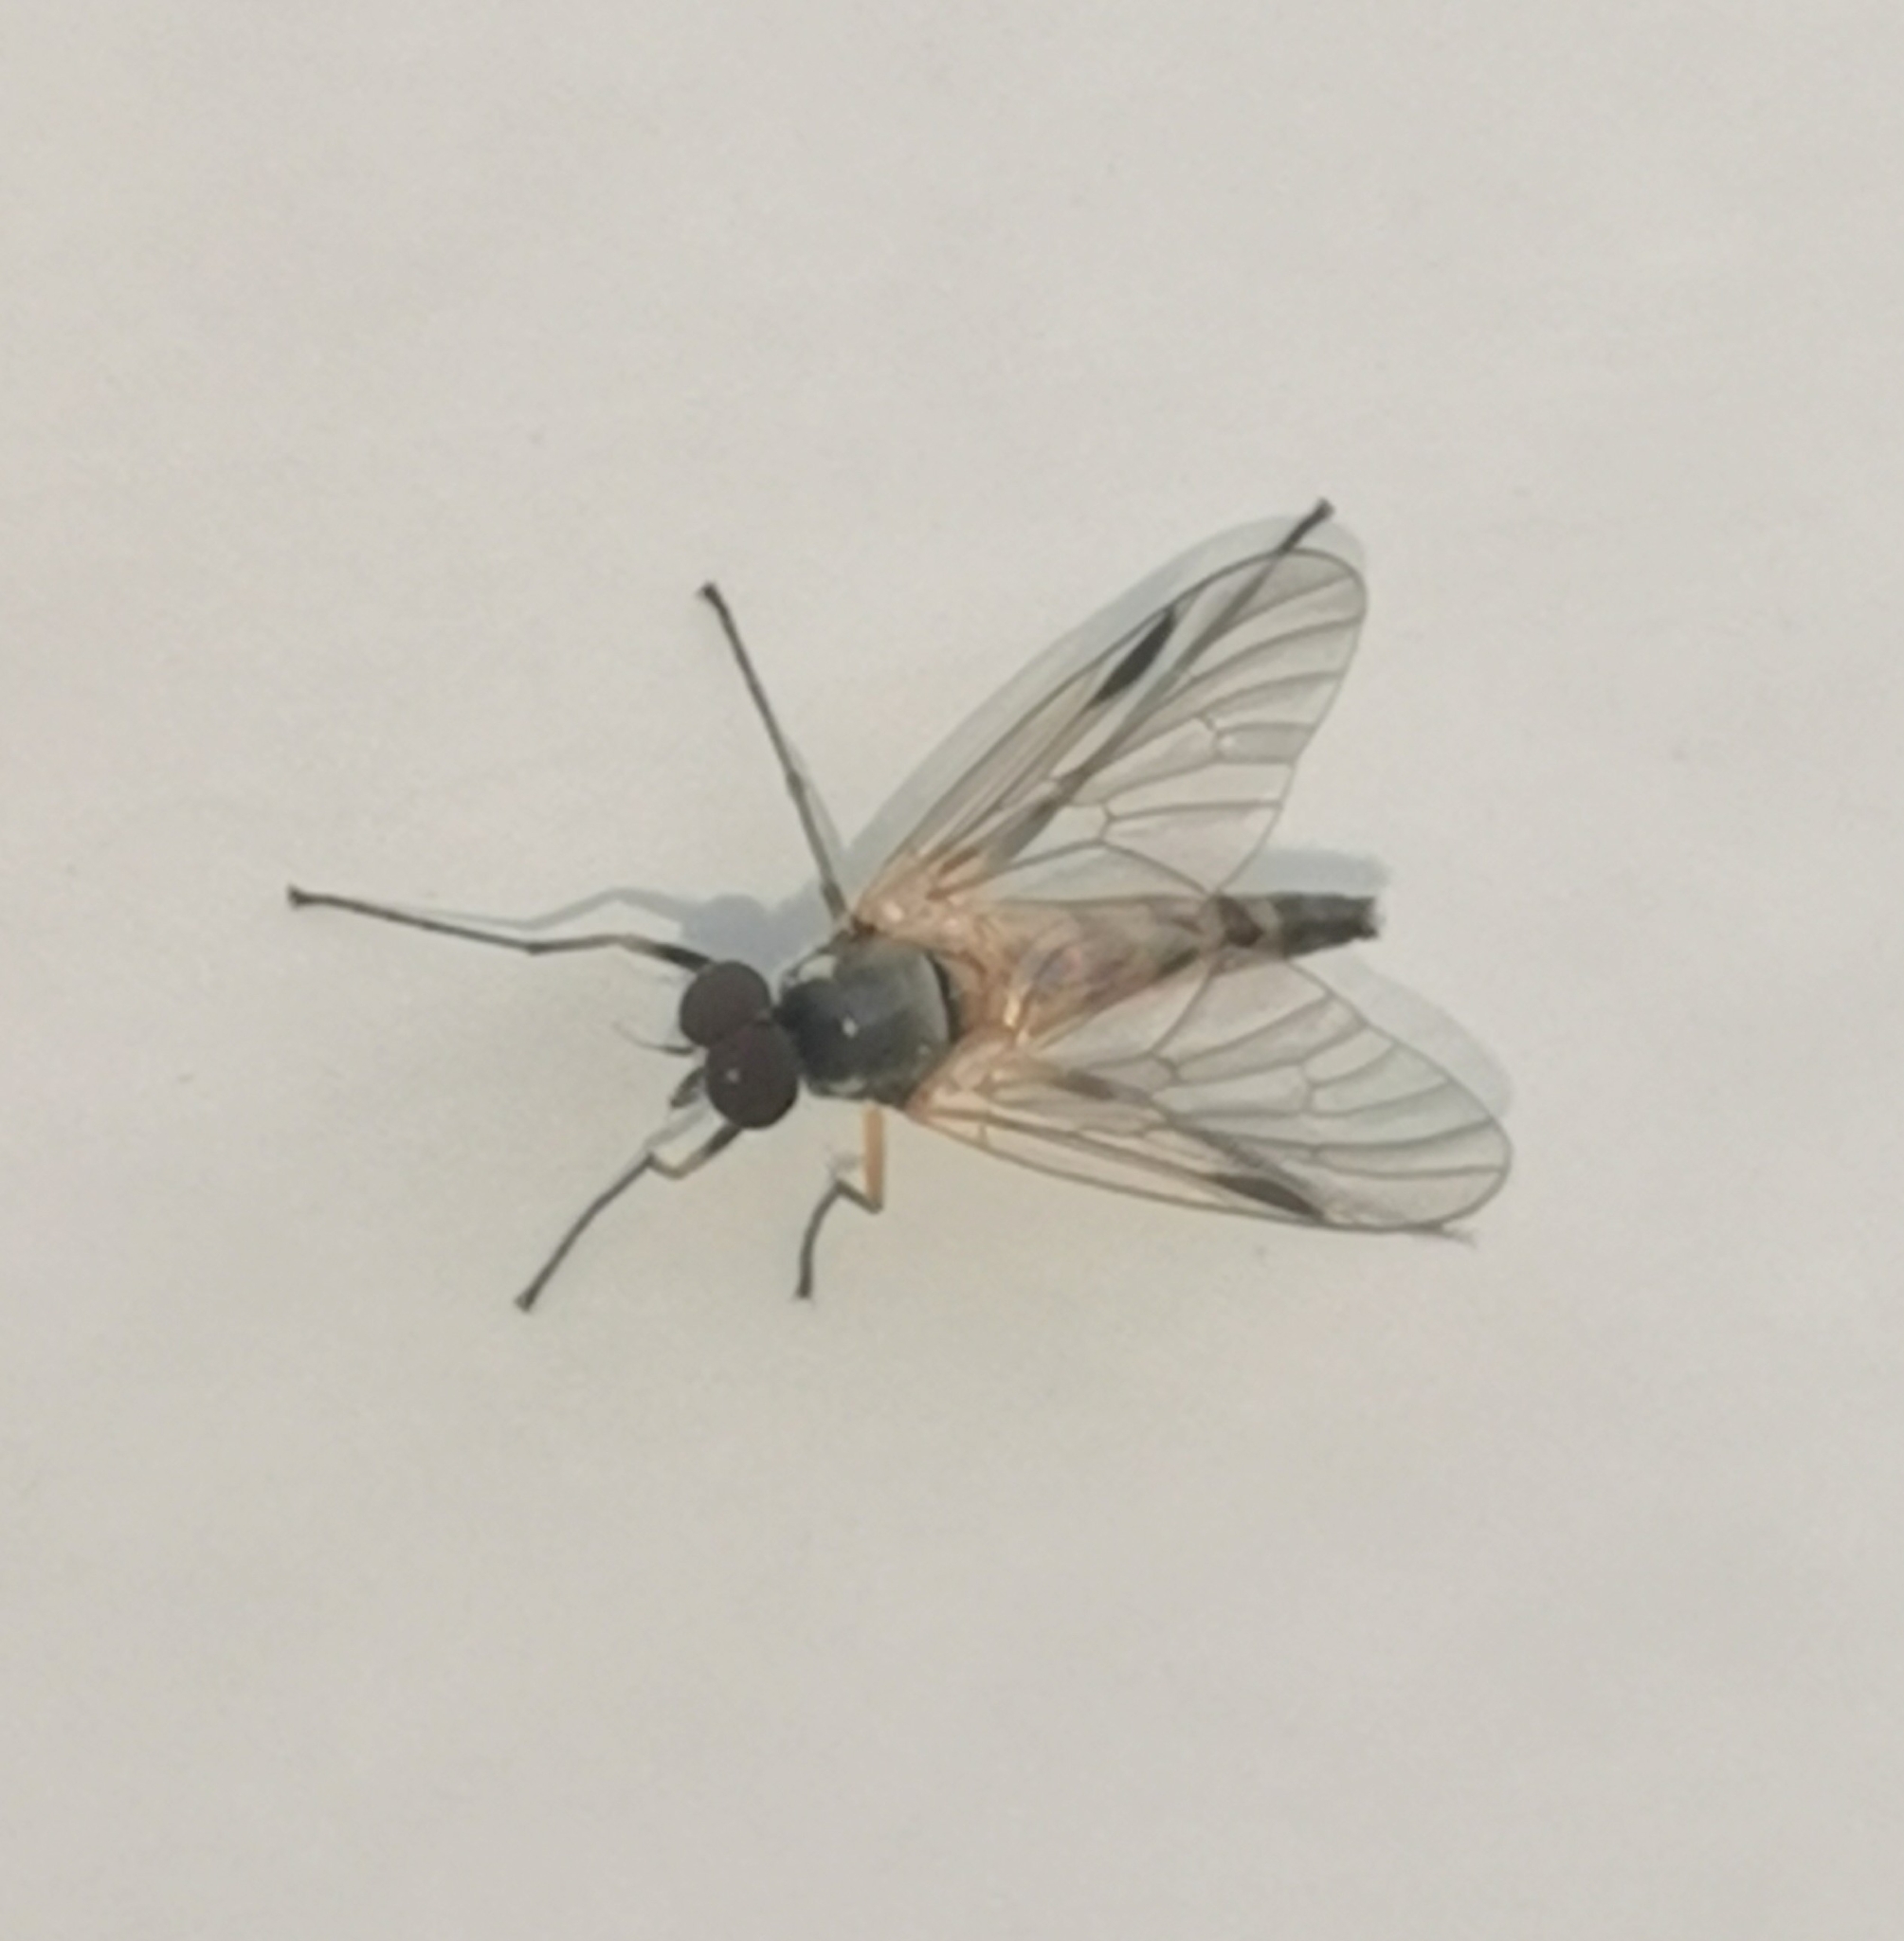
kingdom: Animalia
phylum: Arthropoda
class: Insecta
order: Diptera
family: Rhagionidae
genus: Rhagio
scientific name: Rhagio lineola
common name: Small fleck-winged snipefly
